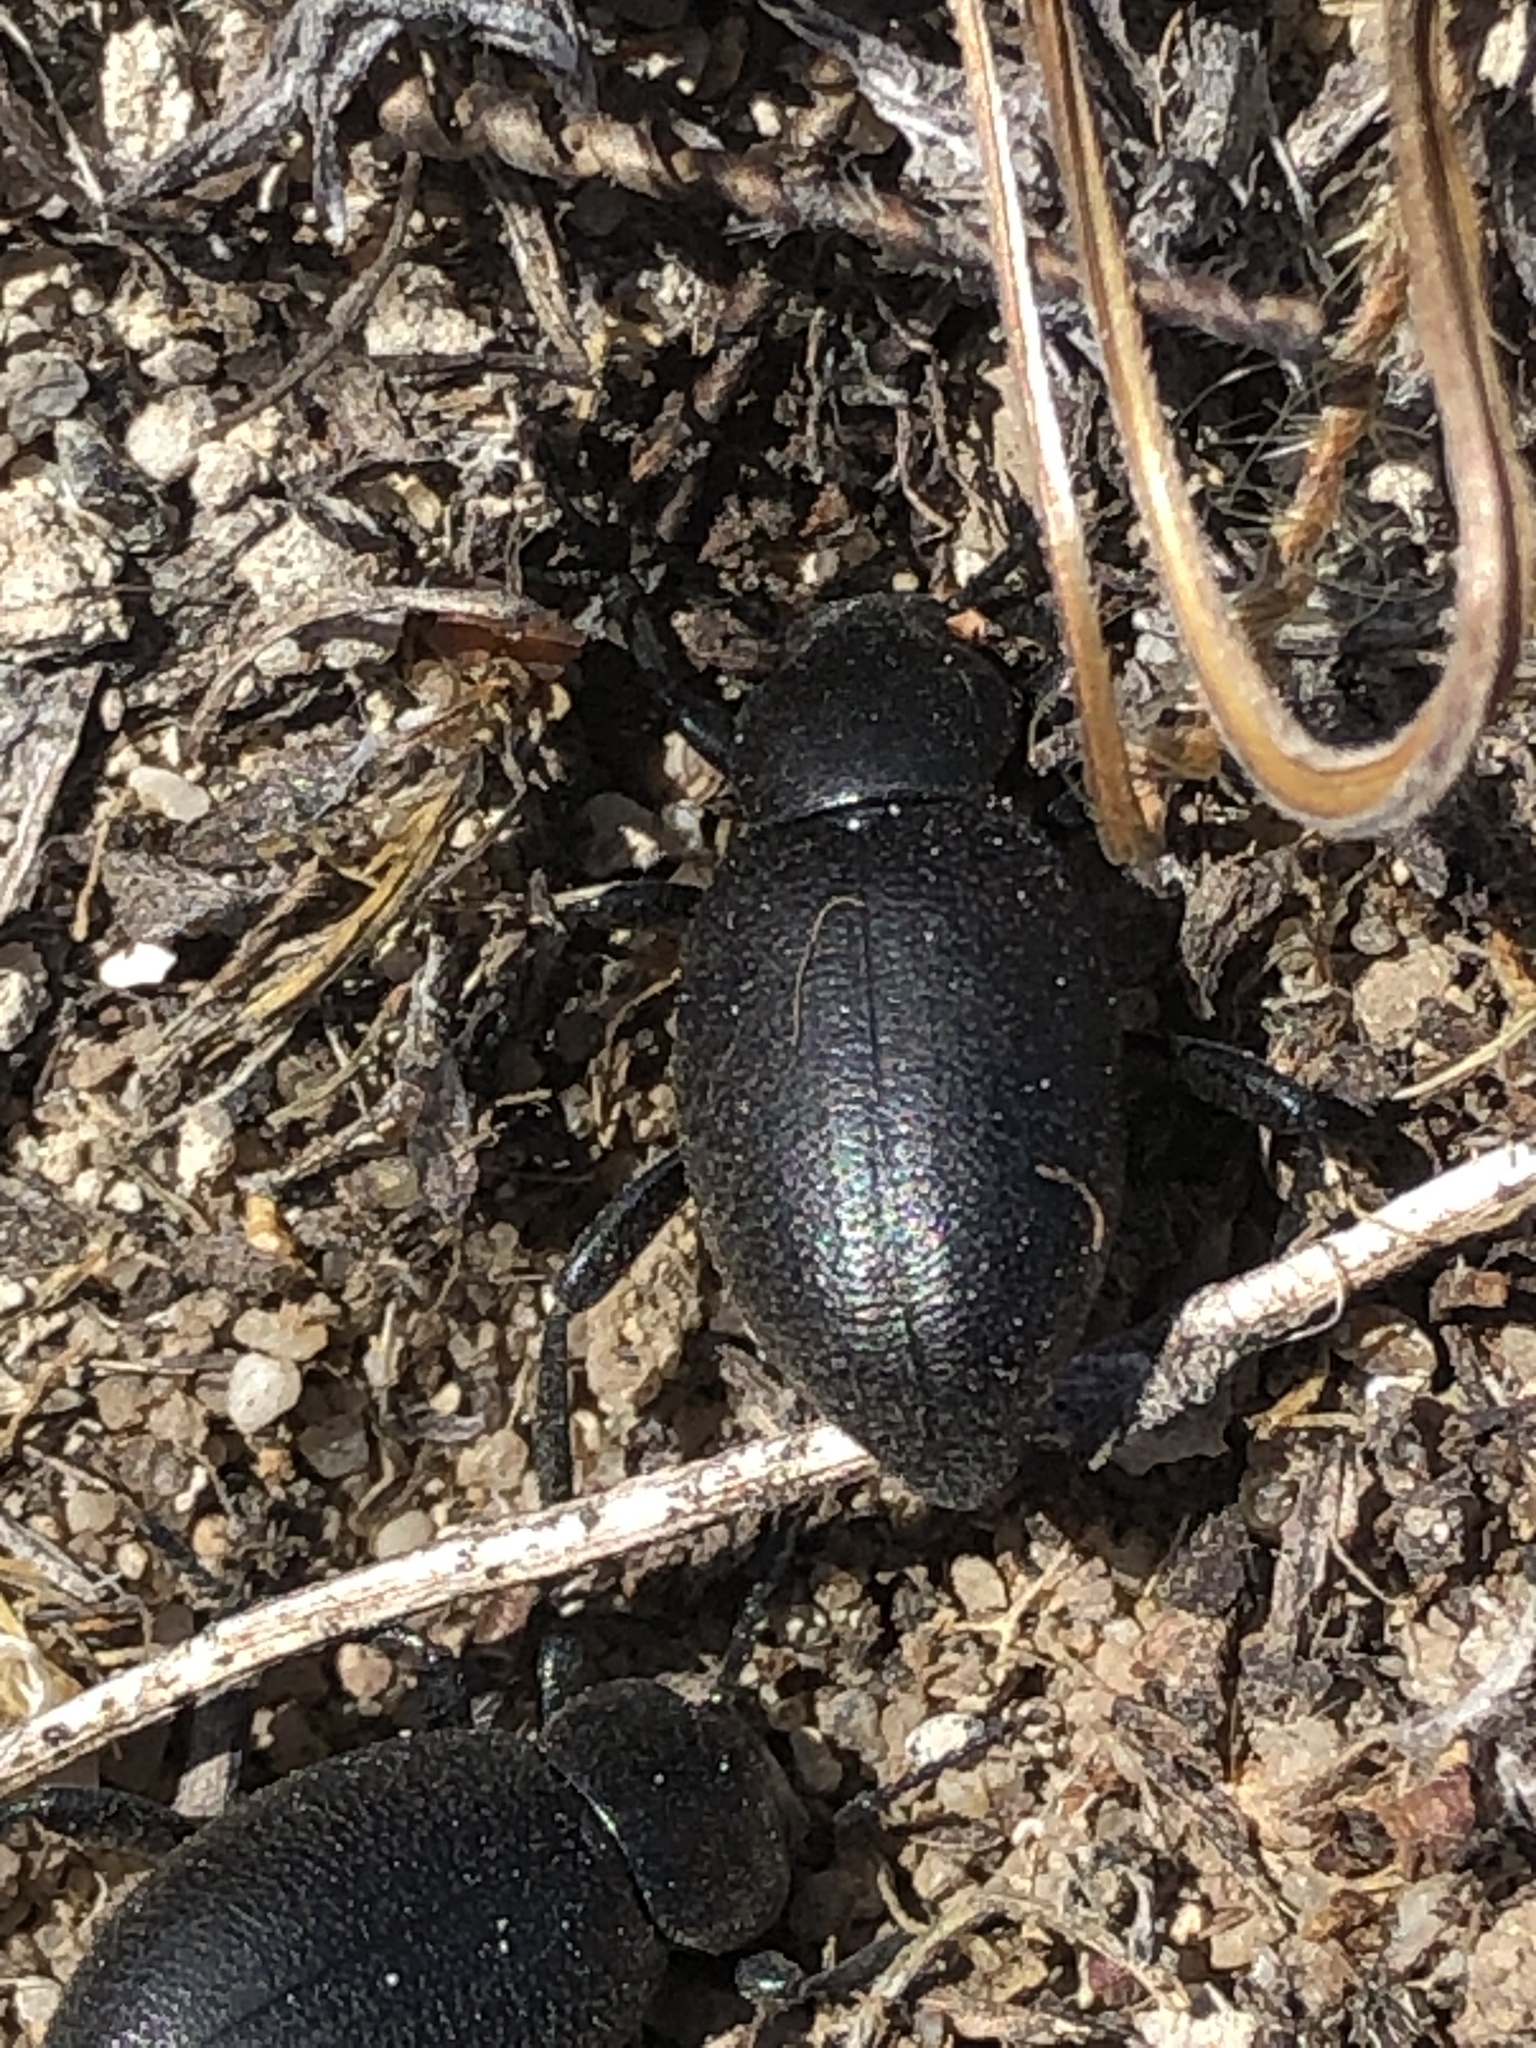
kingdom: Animalia
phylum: Arthropoda
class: Insecta
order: Coleoptera
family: Tenebrionidae
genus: Eleodes
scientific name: Eleodes quadricollis
